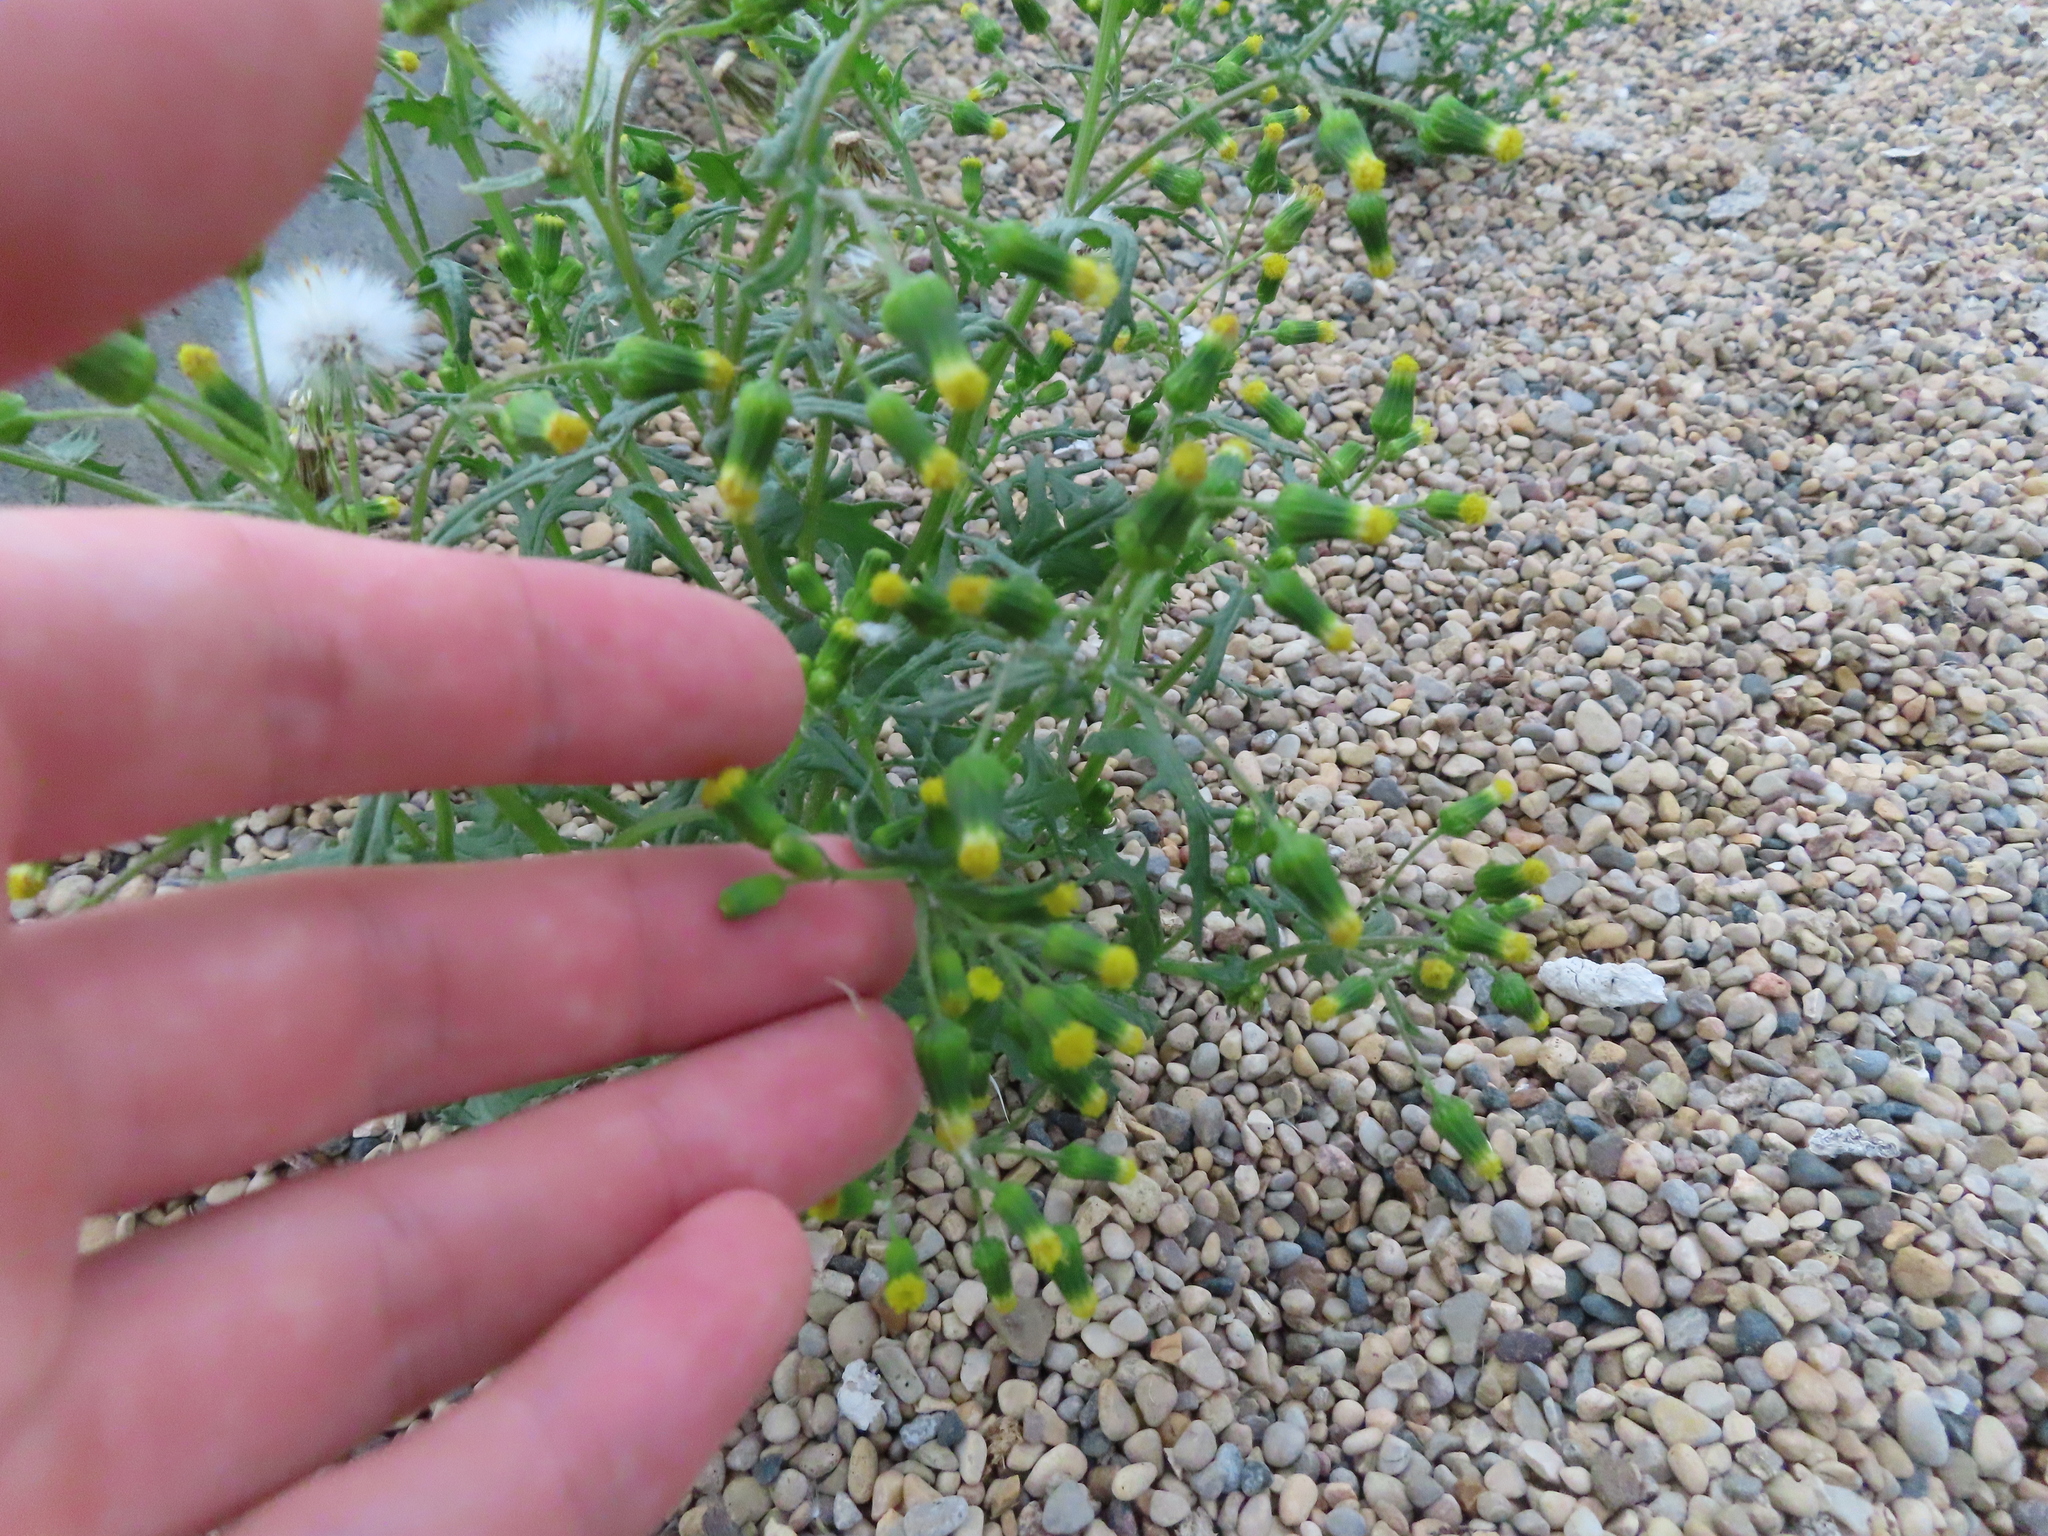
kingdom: Plantae
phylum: Tracheophyta
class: Magnoliopsida
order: Asterales
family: Asteraceae
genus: Senecio
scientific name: Senecio vulgaris
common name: Old-man-in-the-spring
